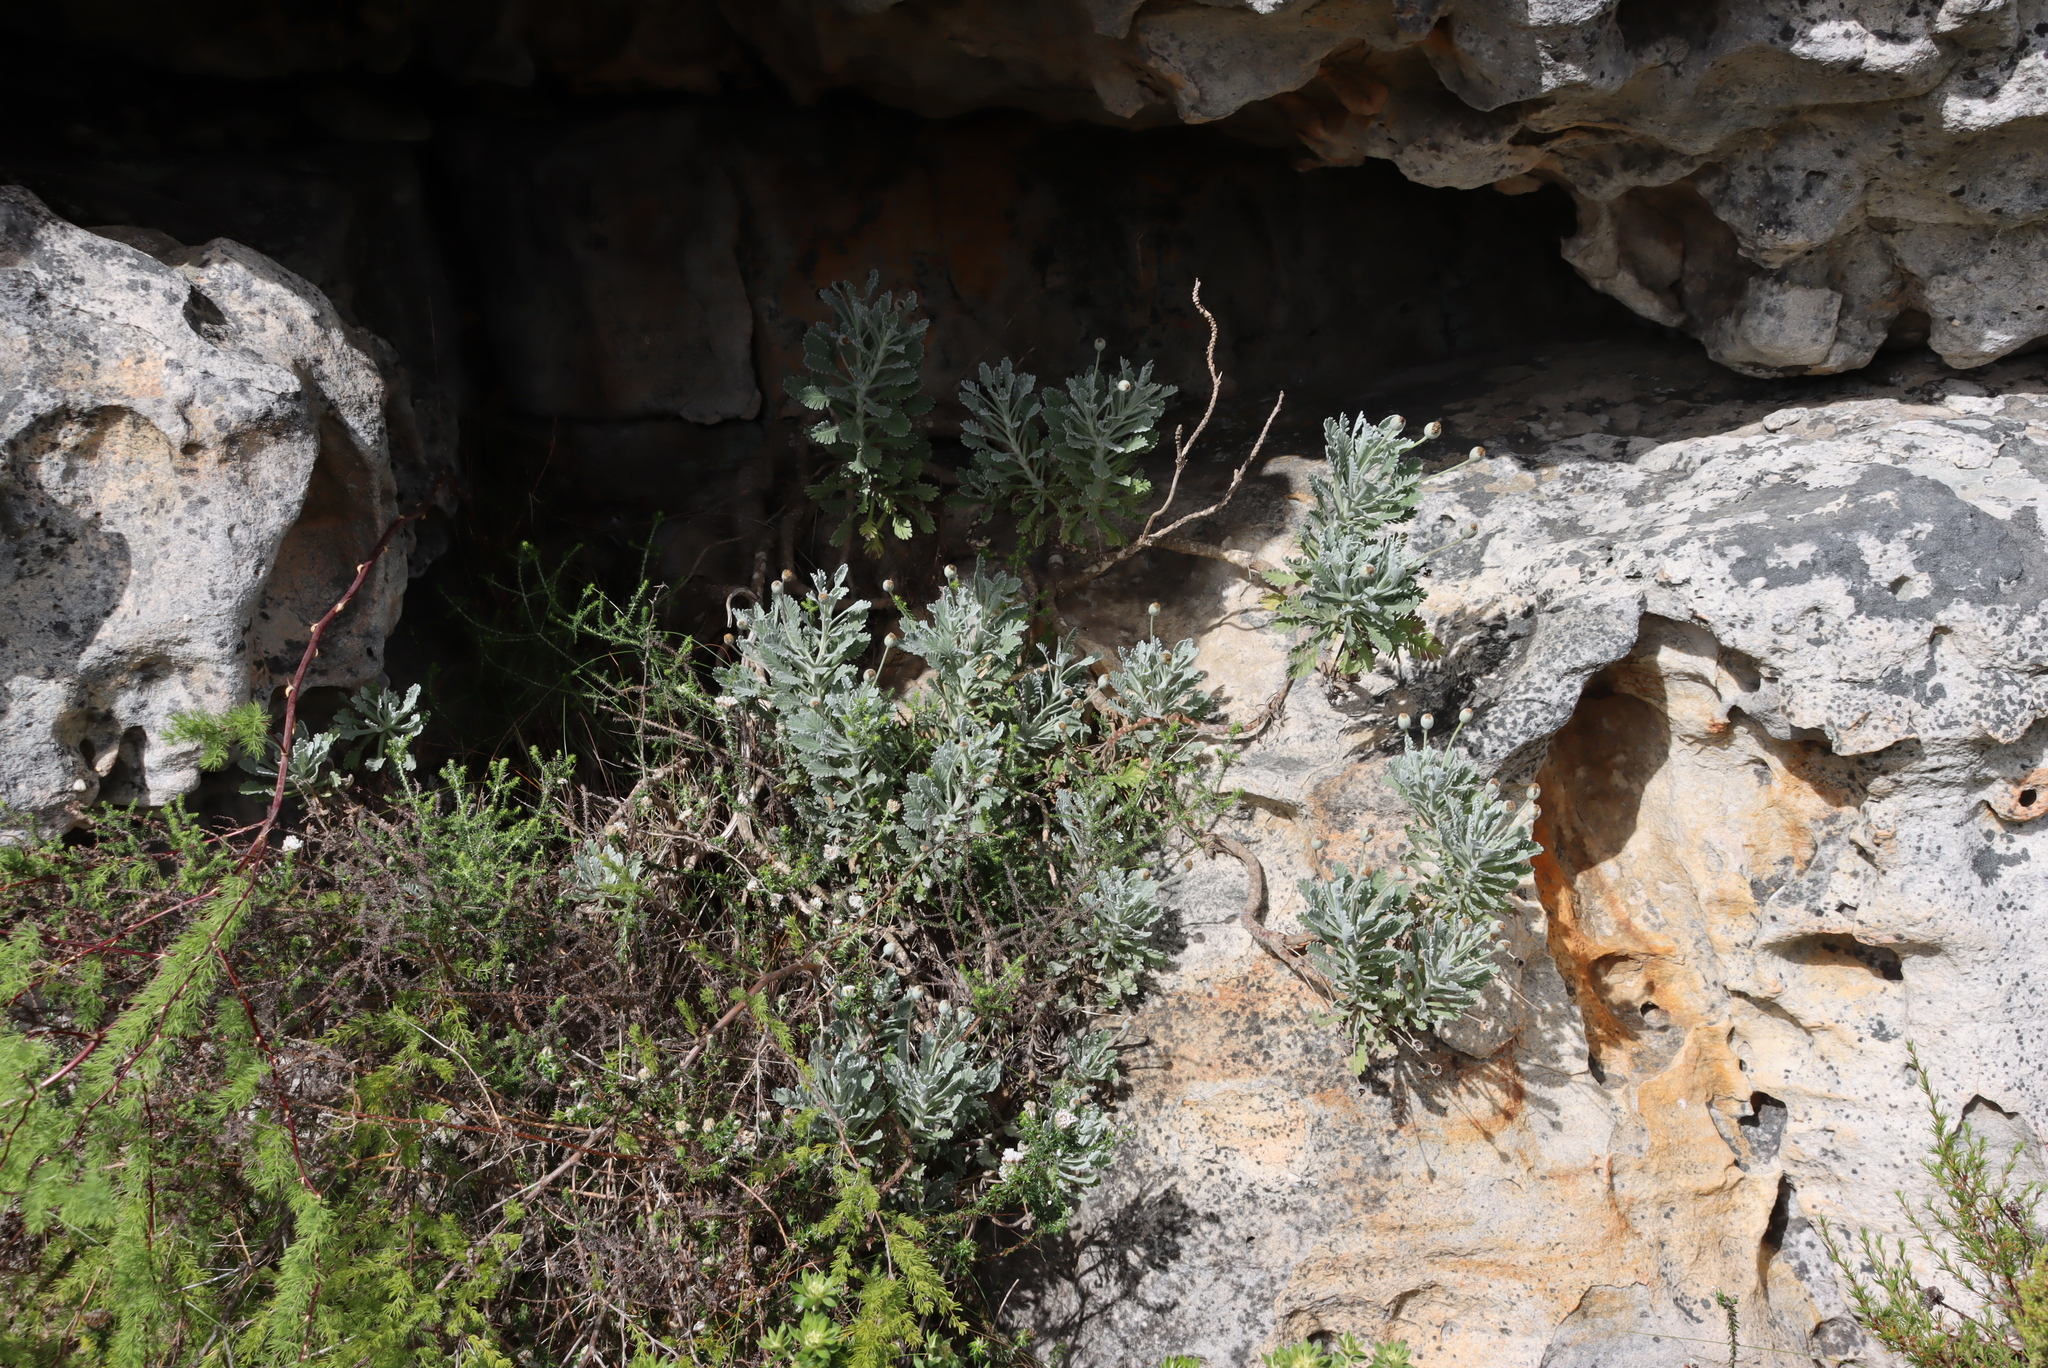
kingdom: Plantae
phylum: Tracheophyta
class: Magnoliopsida
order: Asterales
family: Asteraceae
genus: Euryops
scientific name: Euryops pectinatus
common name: Gray-leaf euryops
